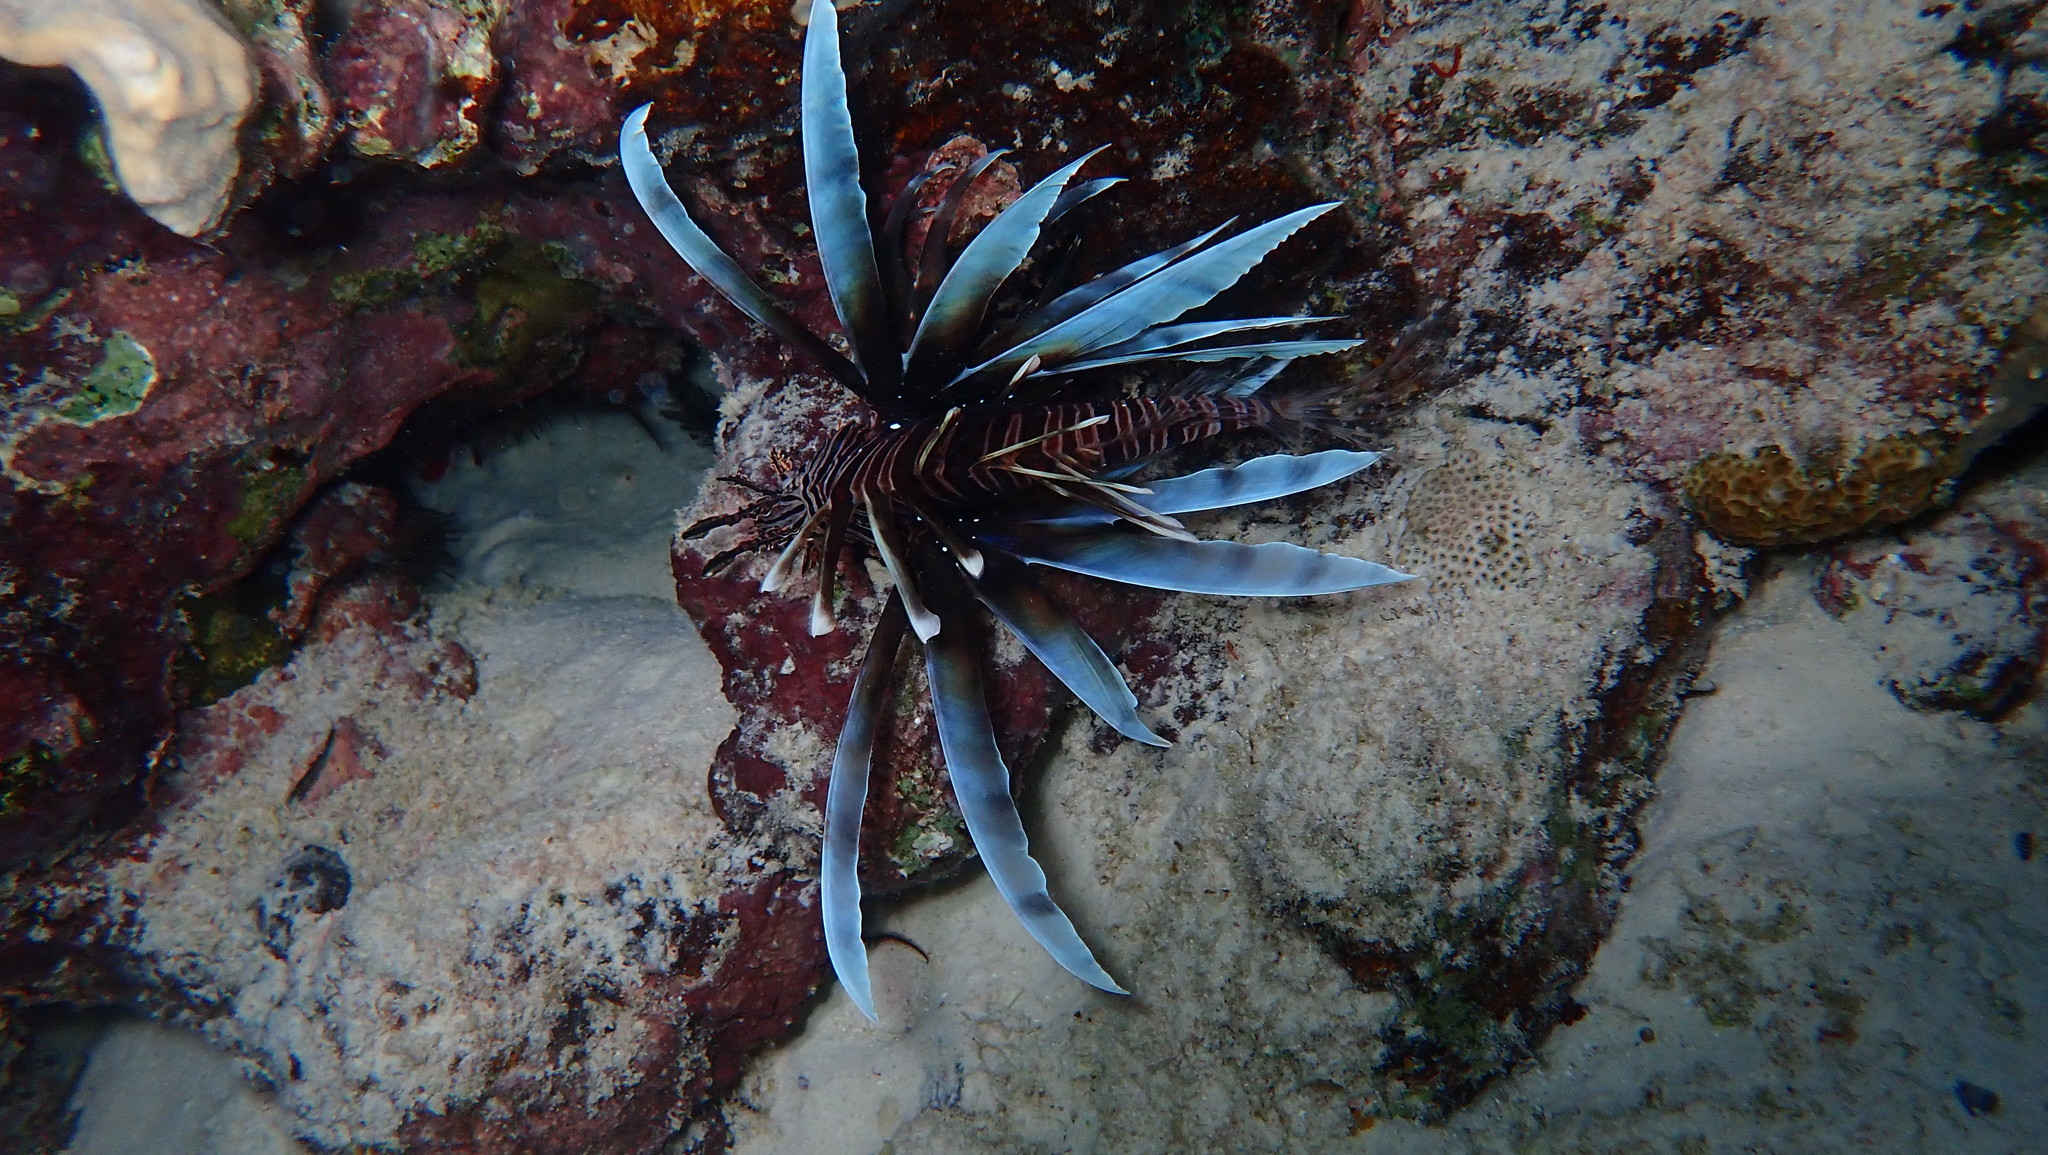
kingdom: Animalia
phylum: Chordata
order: Scorpaeniformes
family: Scorpaenidae
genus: Pterois
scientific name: Pterois volitans
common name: Lionfish
